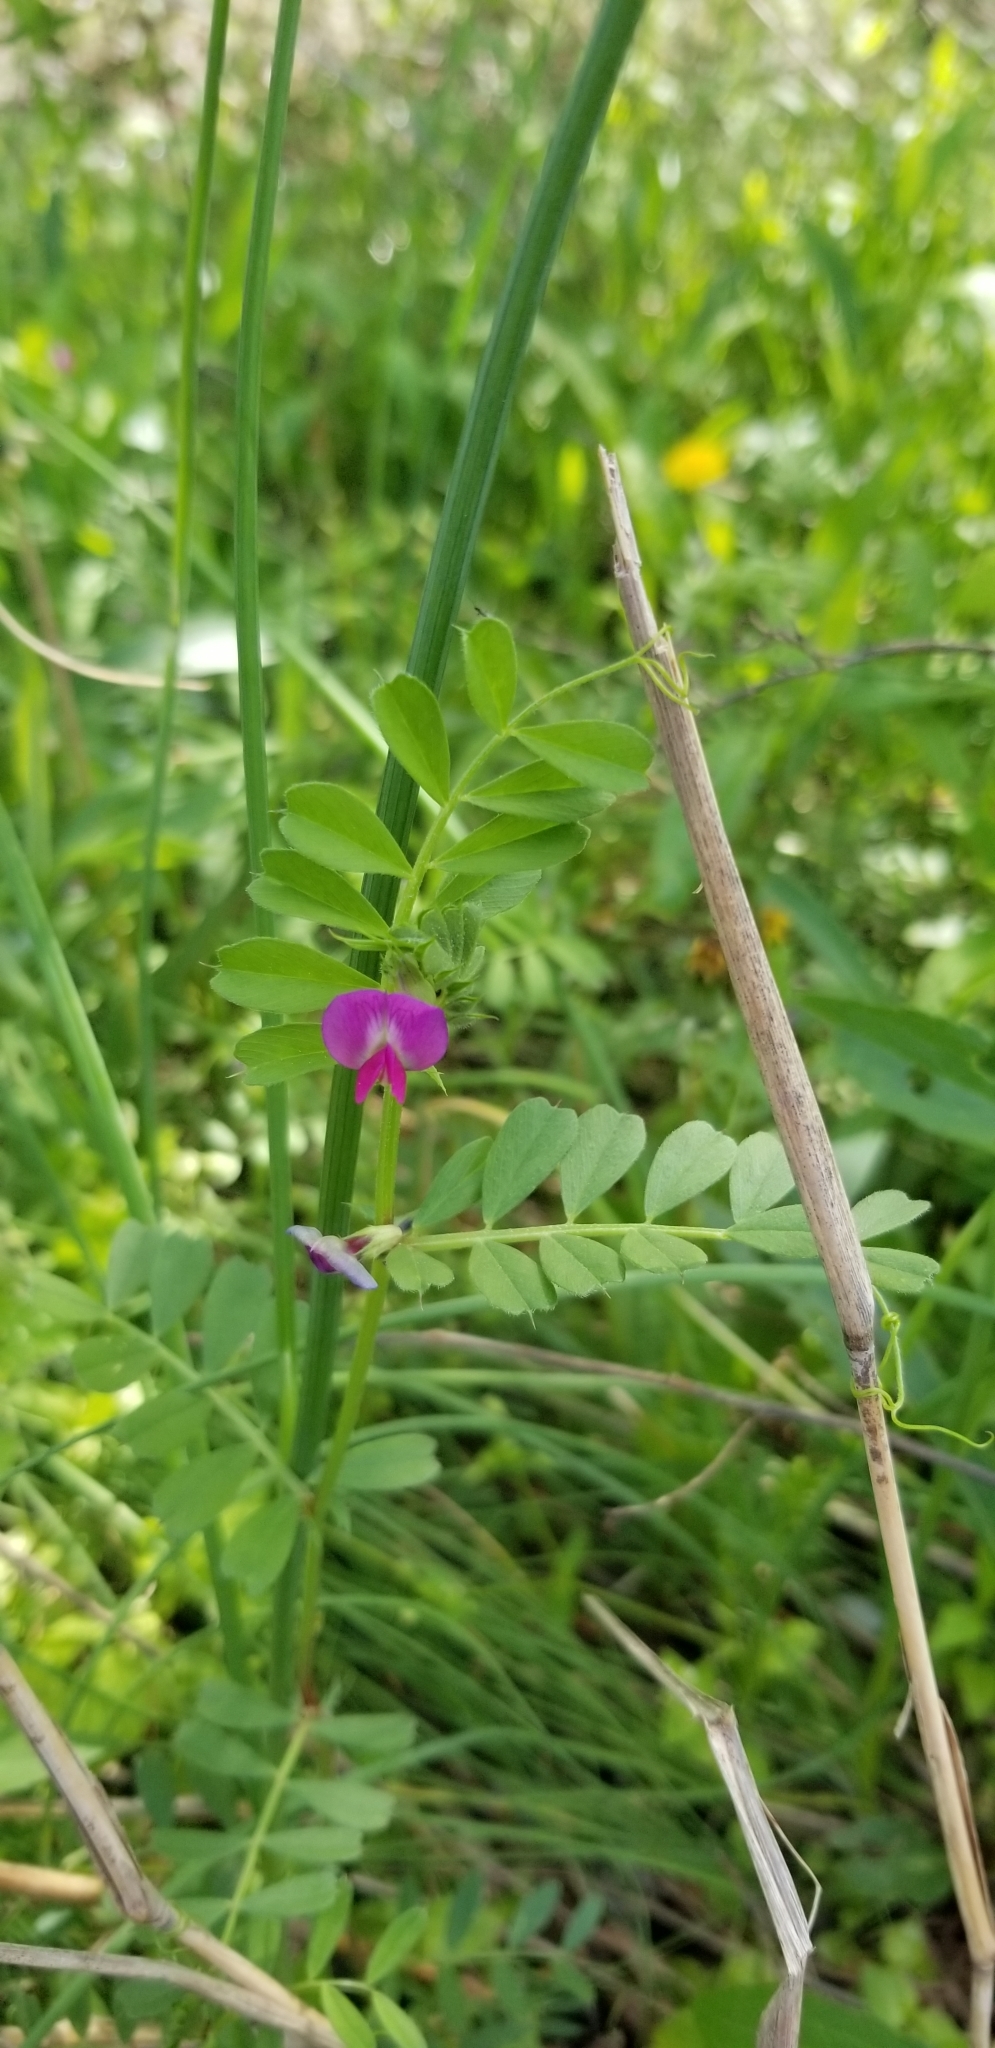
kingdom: Plantae
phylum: Tracheophyta
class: Magnoliopsida
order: Fabales
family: Fabaceae
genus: Vicia
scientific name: Vicia sativa
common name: Garden vetch
